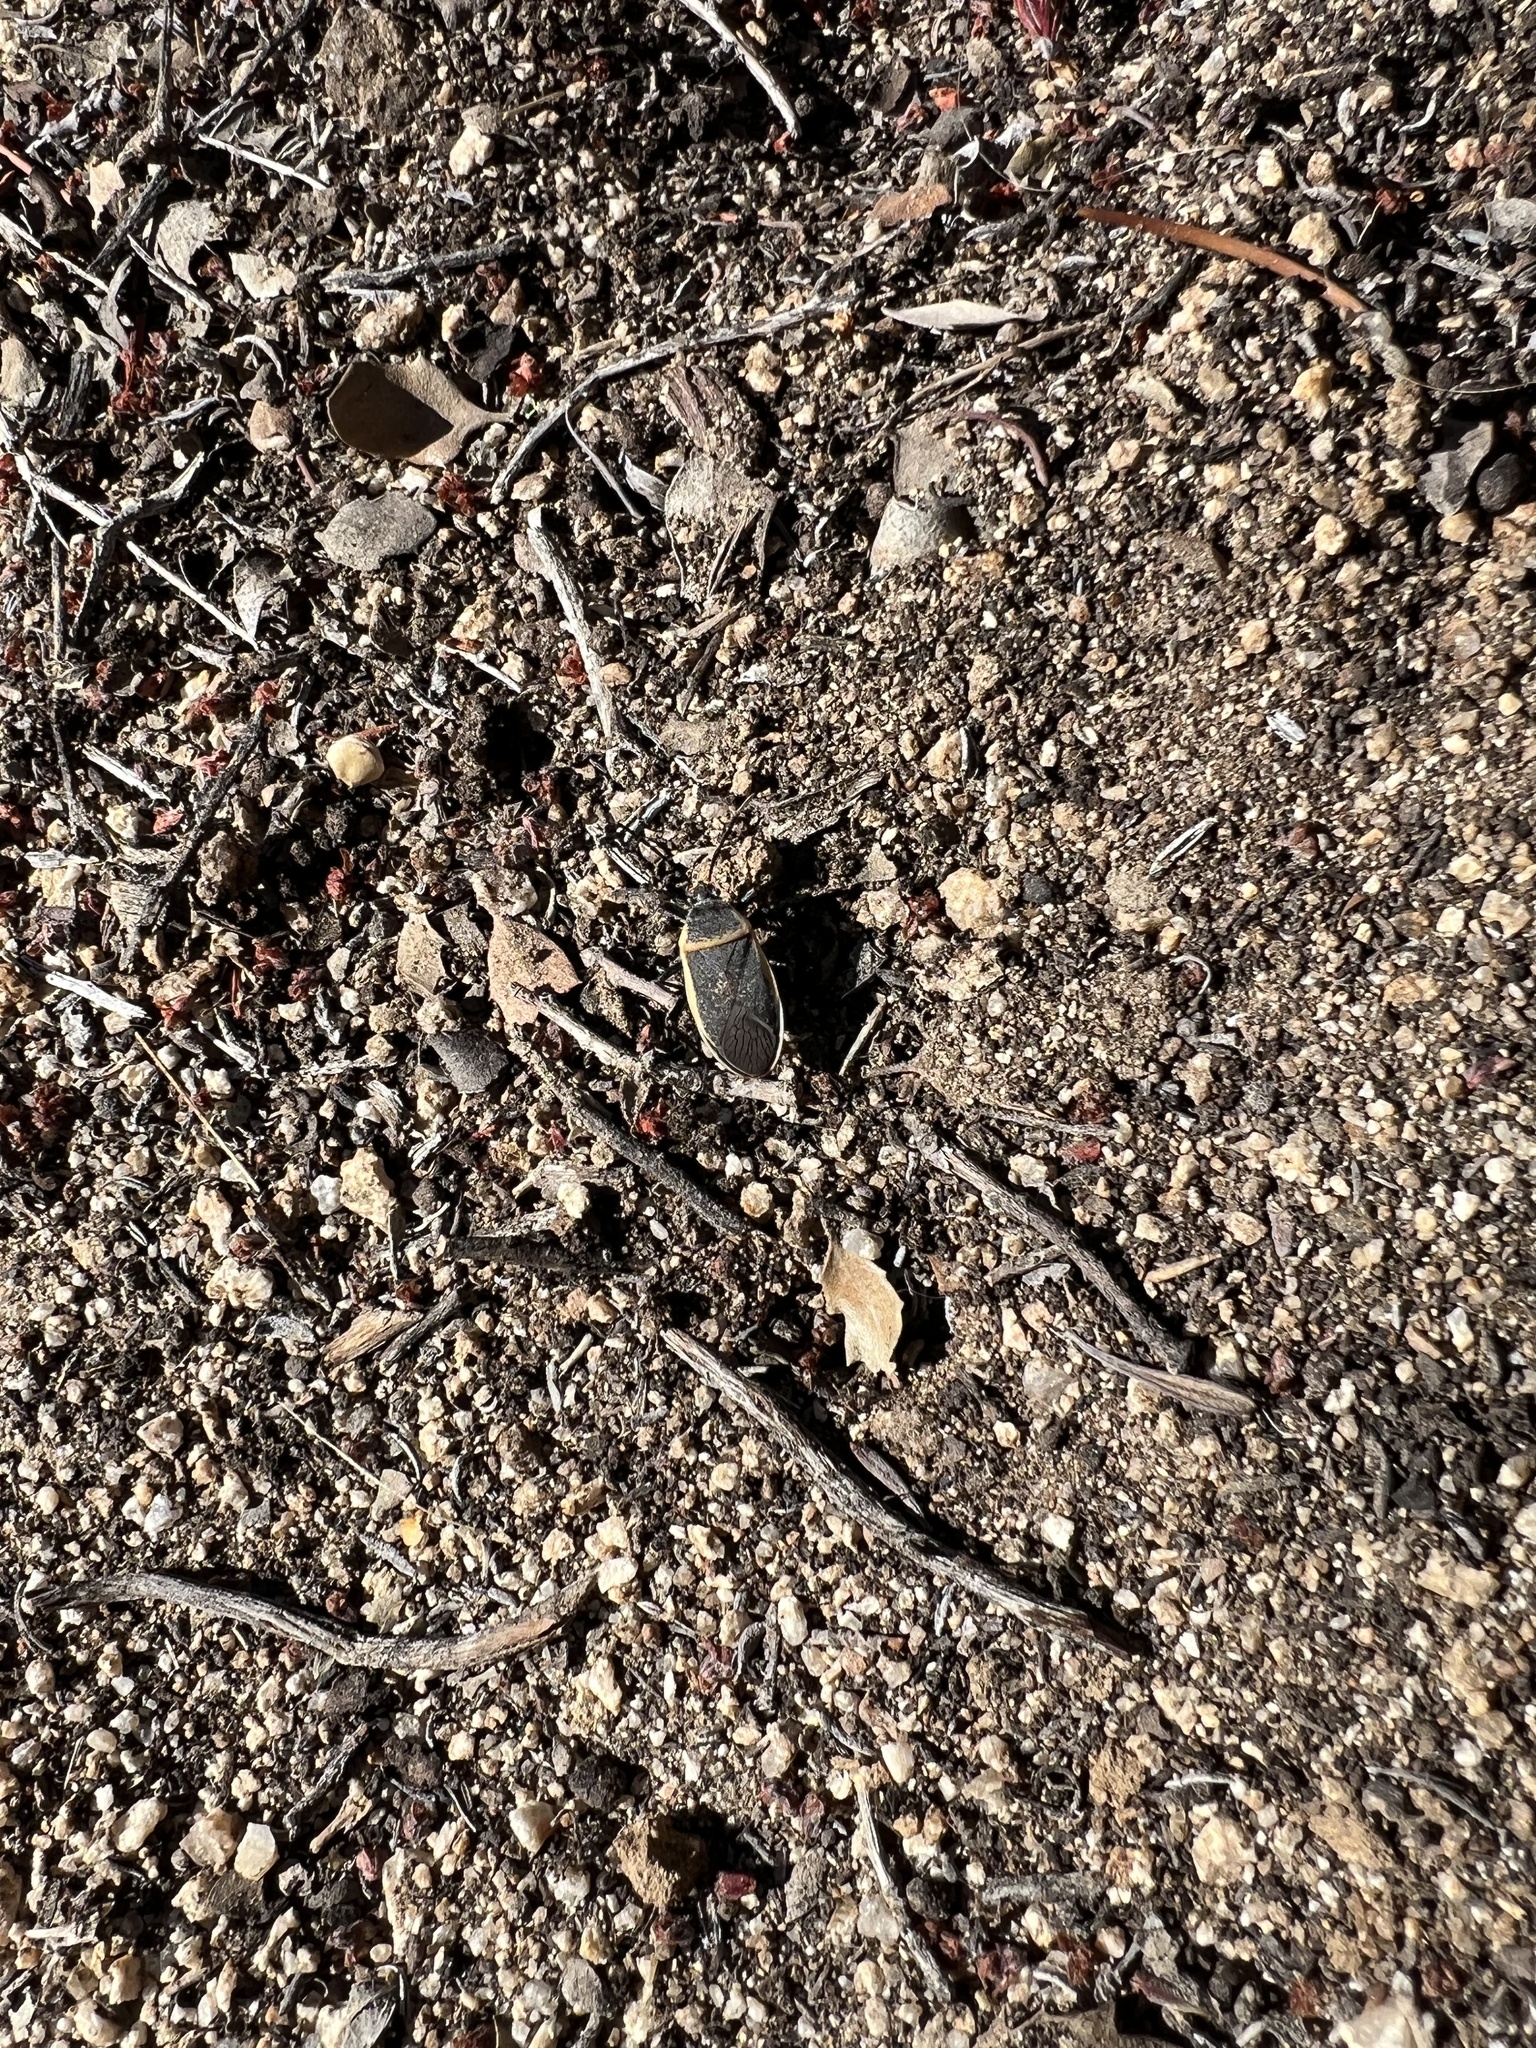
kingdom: Animalia
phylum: Arthropoda
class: Insecta
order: Hemiptera
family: Largidae
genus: Largus
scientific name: Largus californicus
